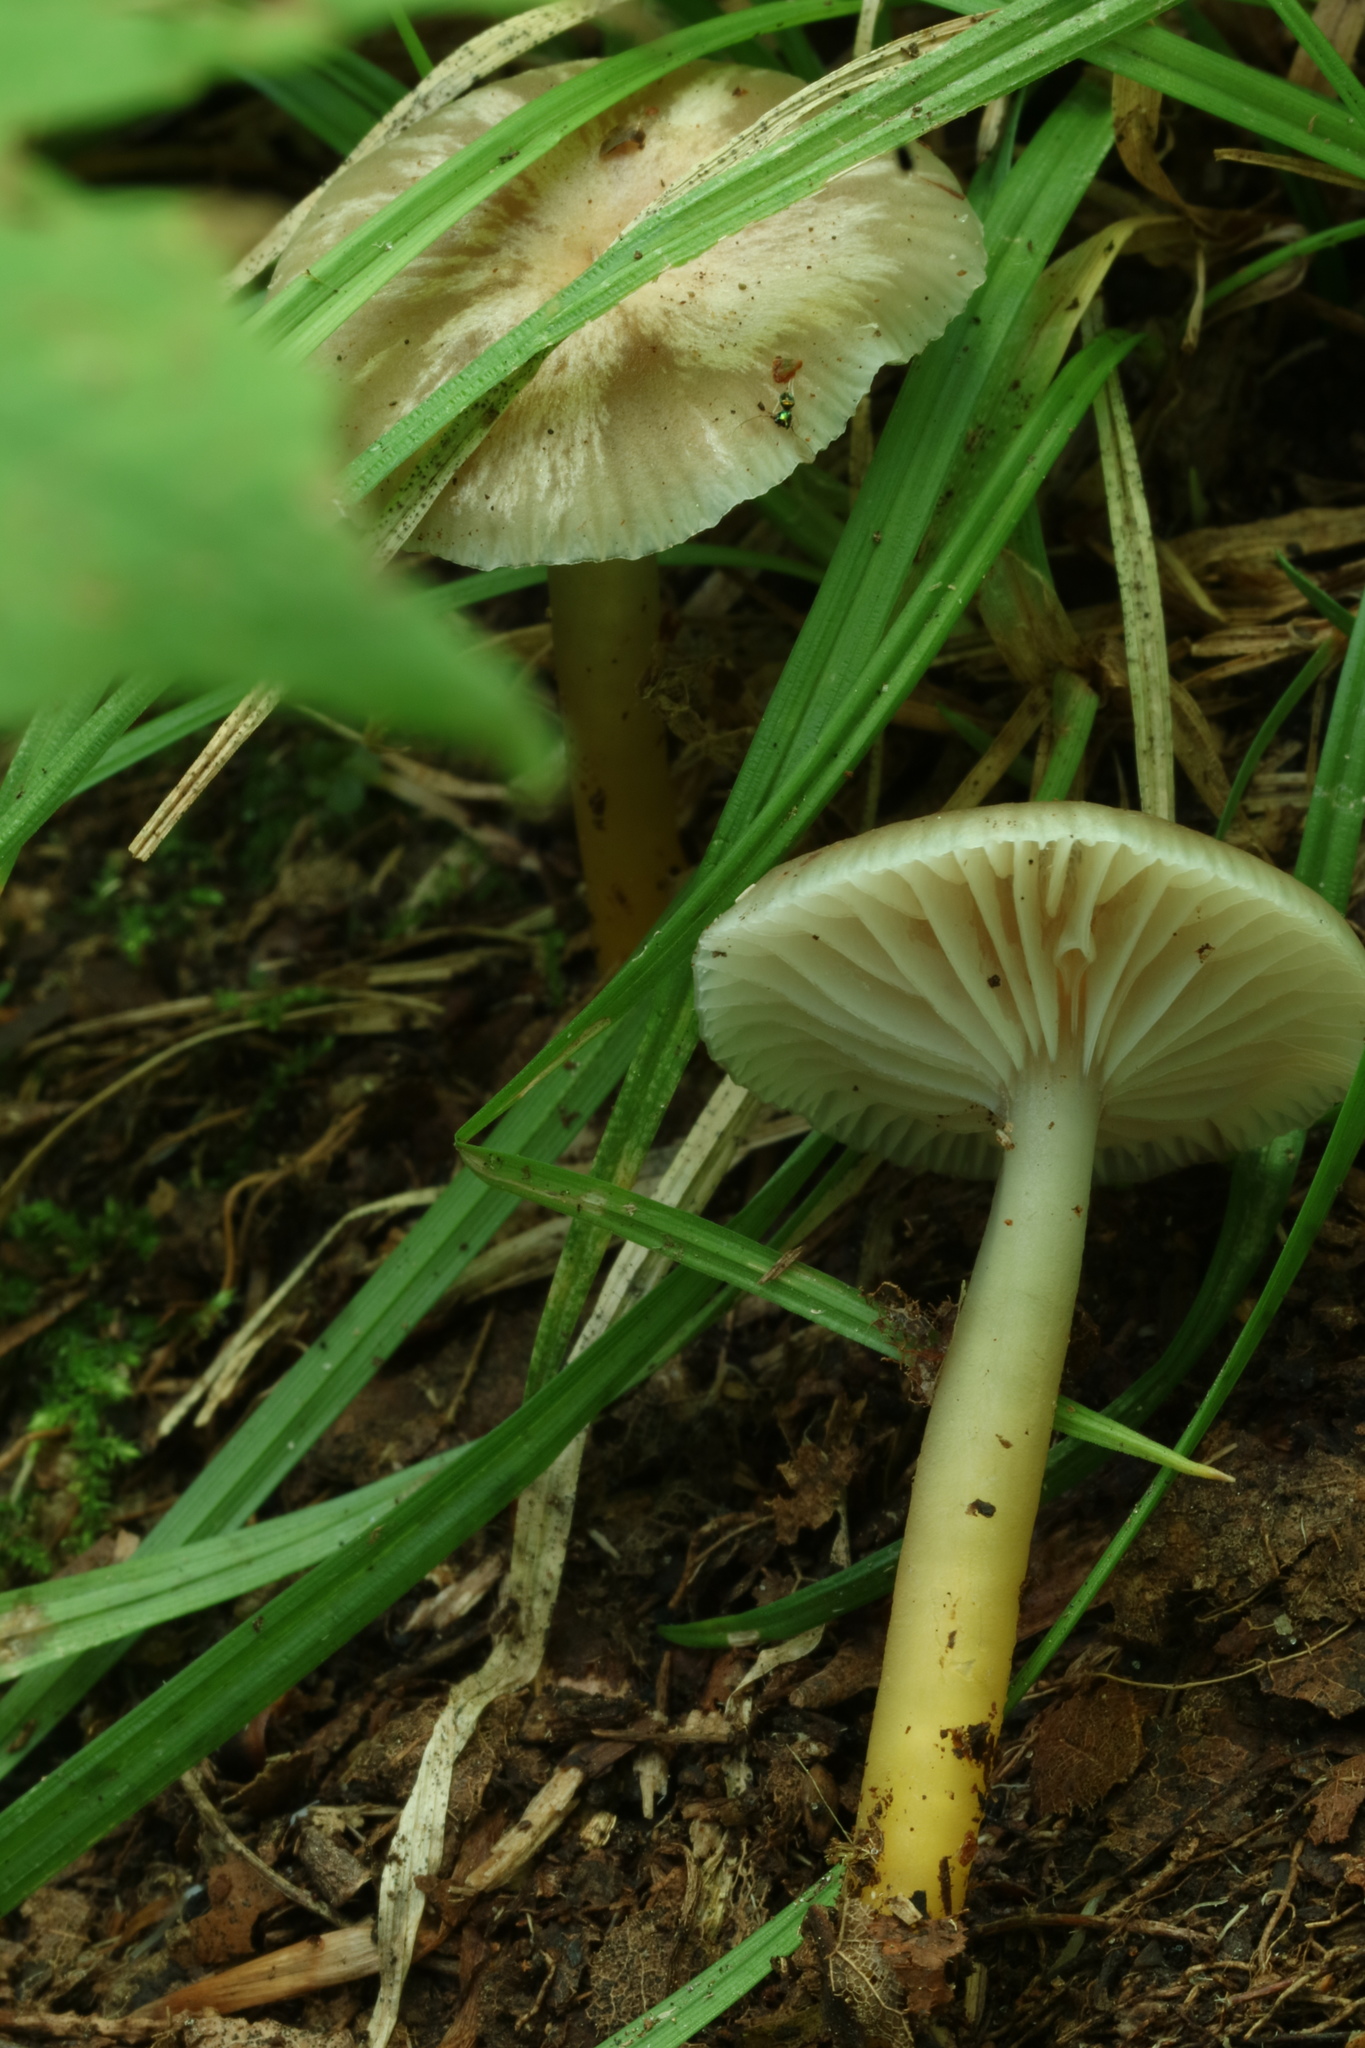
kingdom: Fungi
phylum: Basidiomycota
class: Agaricomycetes
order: Agaricales
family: Hygrophoraceae
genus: Gliophorus
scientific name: Gliophorus psittacinus
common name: Parrot wax-cap
